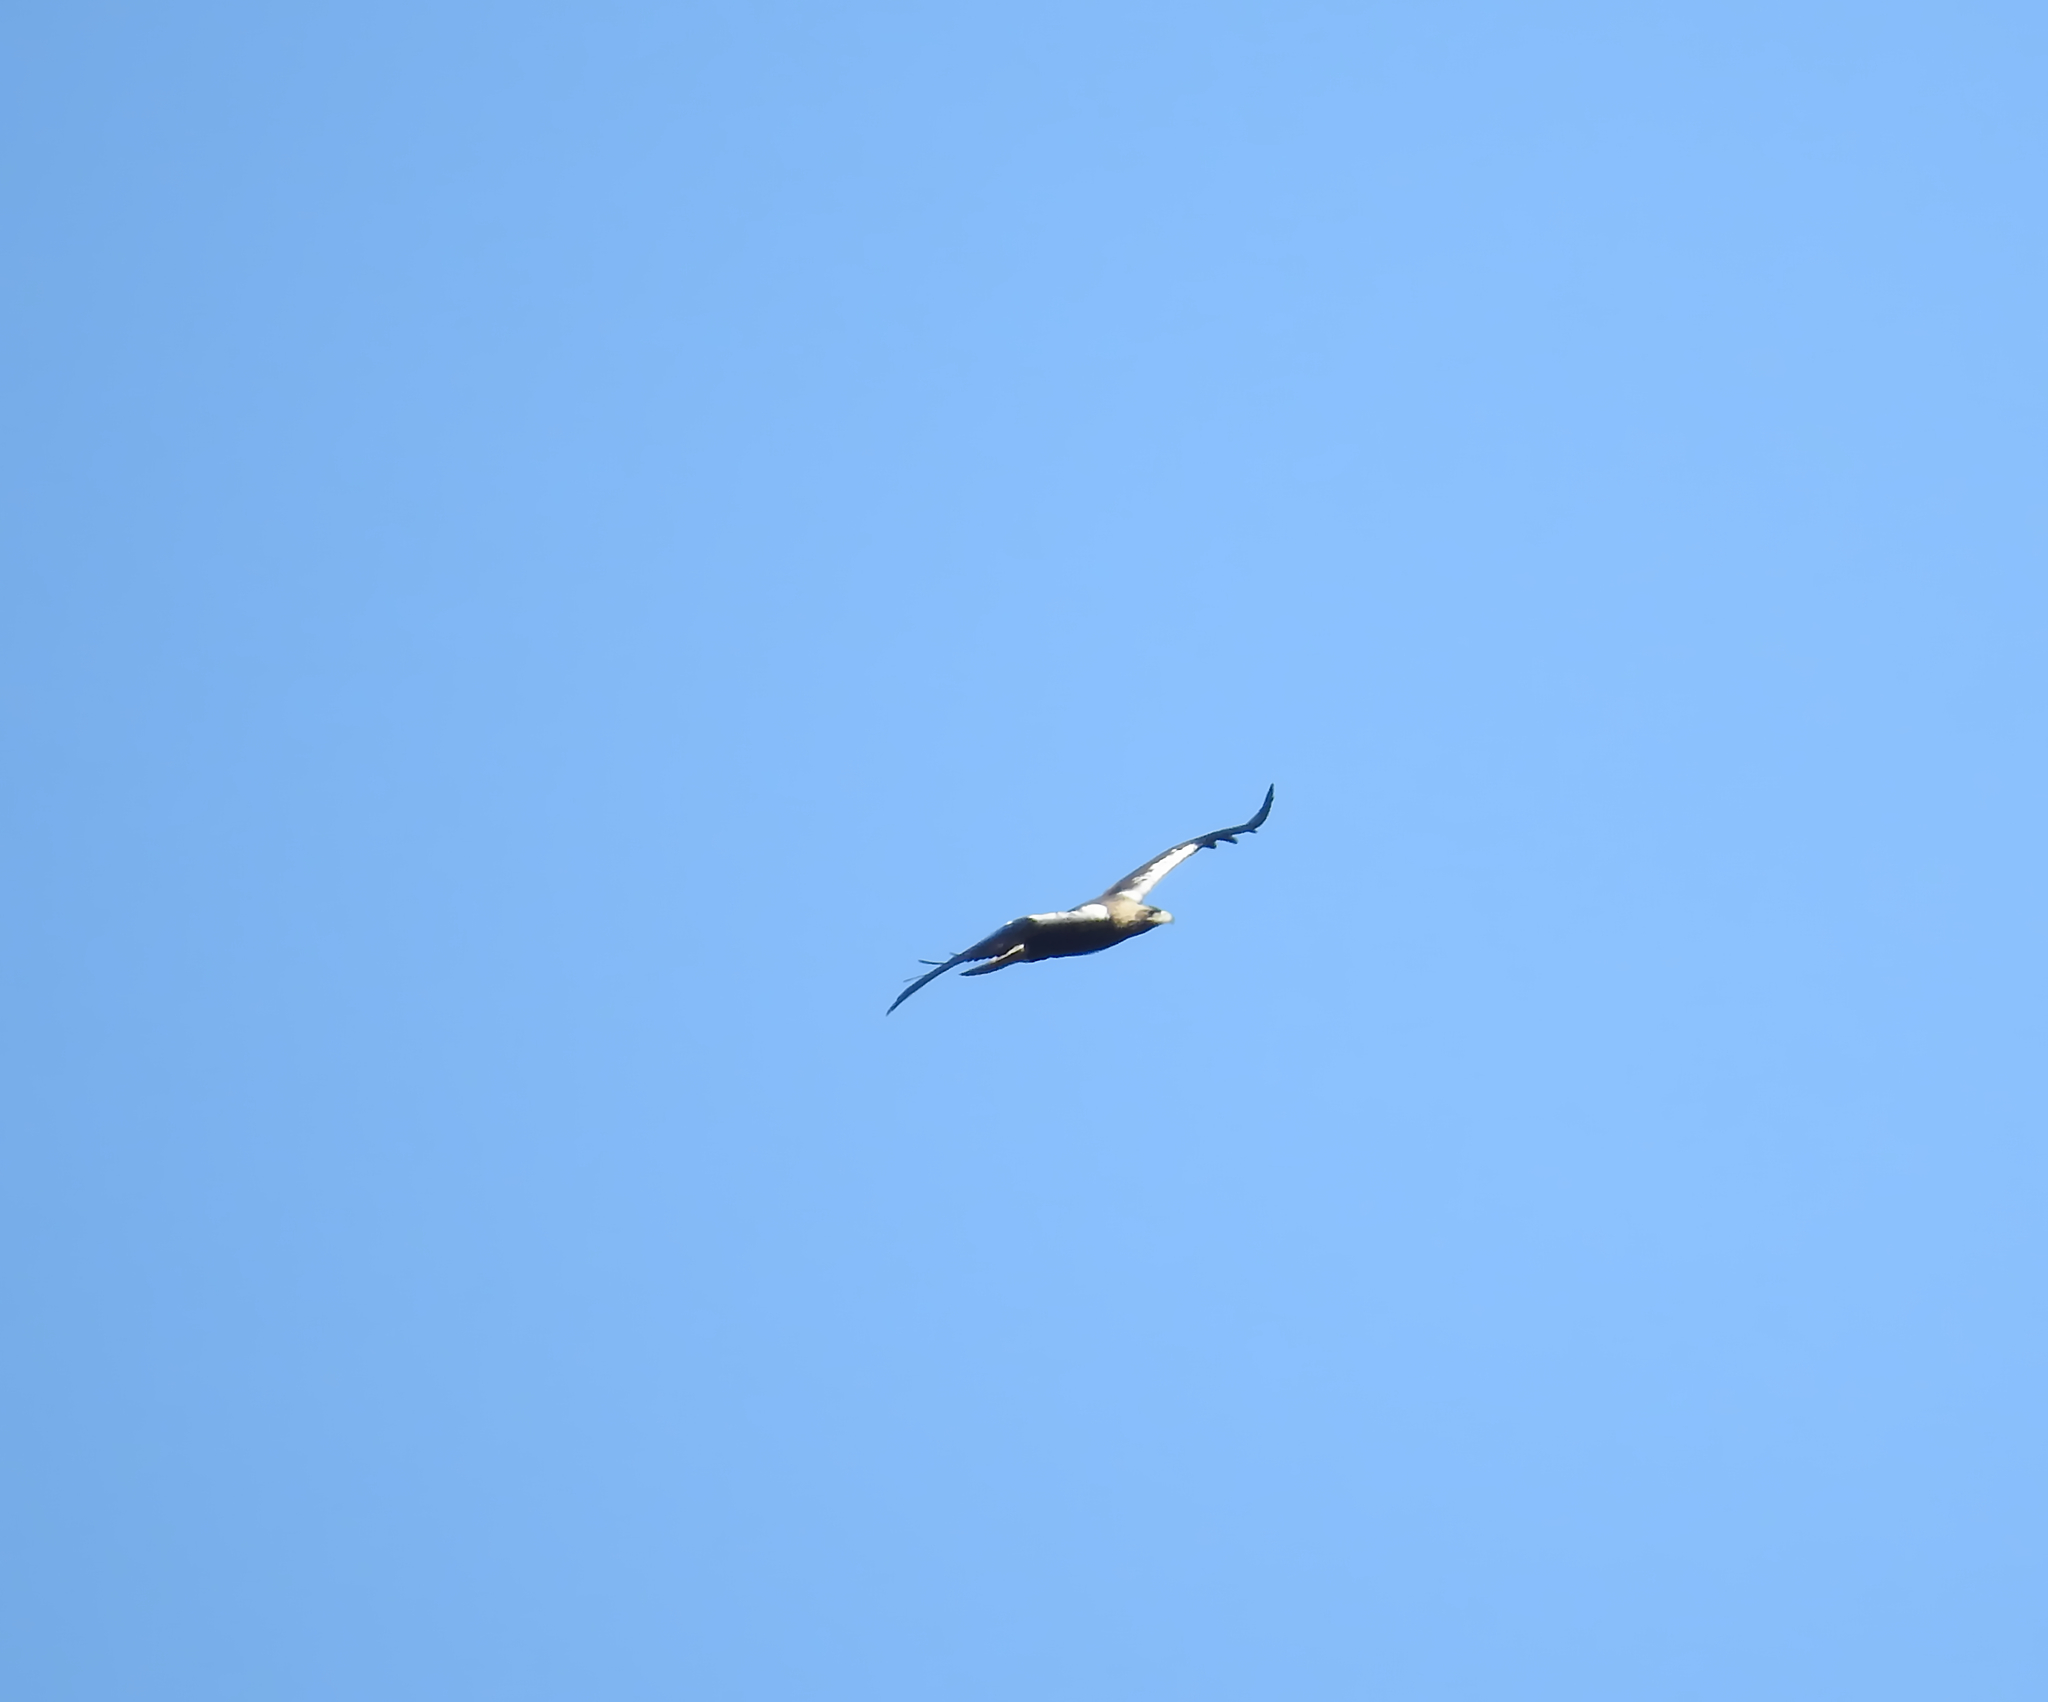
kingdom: Animalia
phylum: Chordata
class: Aves
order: Accipitriformes
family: Accipitridae
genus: Aquila
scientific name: Aquila adalberti
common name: Spanish imperial eagle
